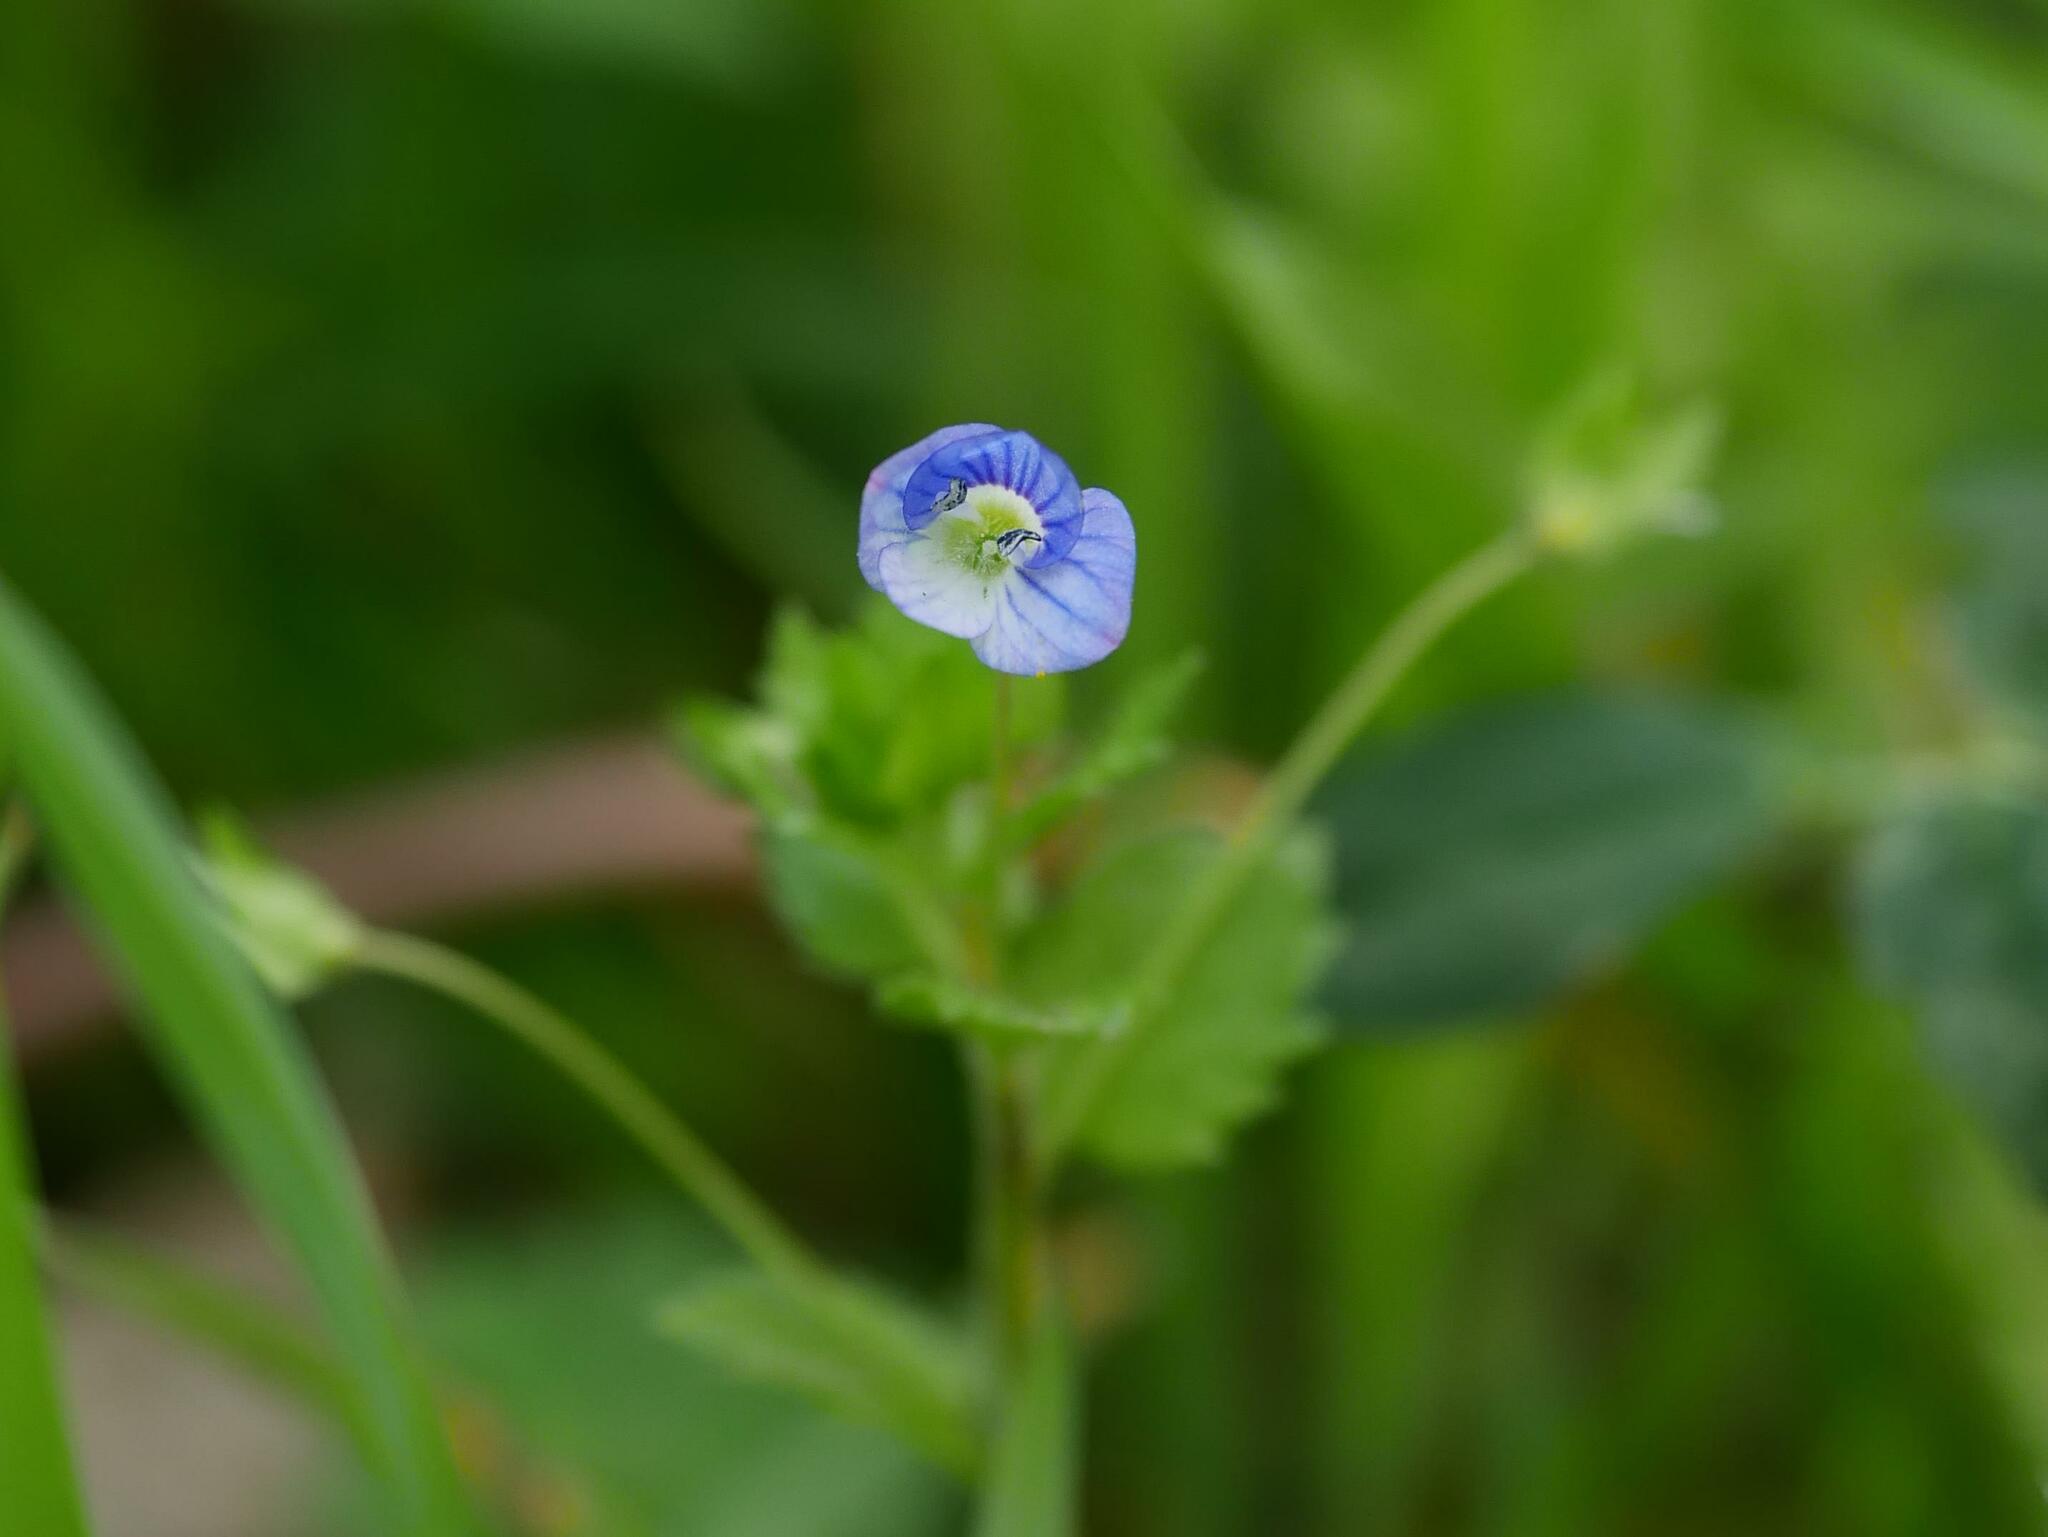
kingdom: Plantae
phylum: Tracheophyta
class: Magnoliopsida
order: Lamiales
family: Plantaginaceae
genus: Veronica
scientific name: Veronica persica
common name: Common field-speedwell
